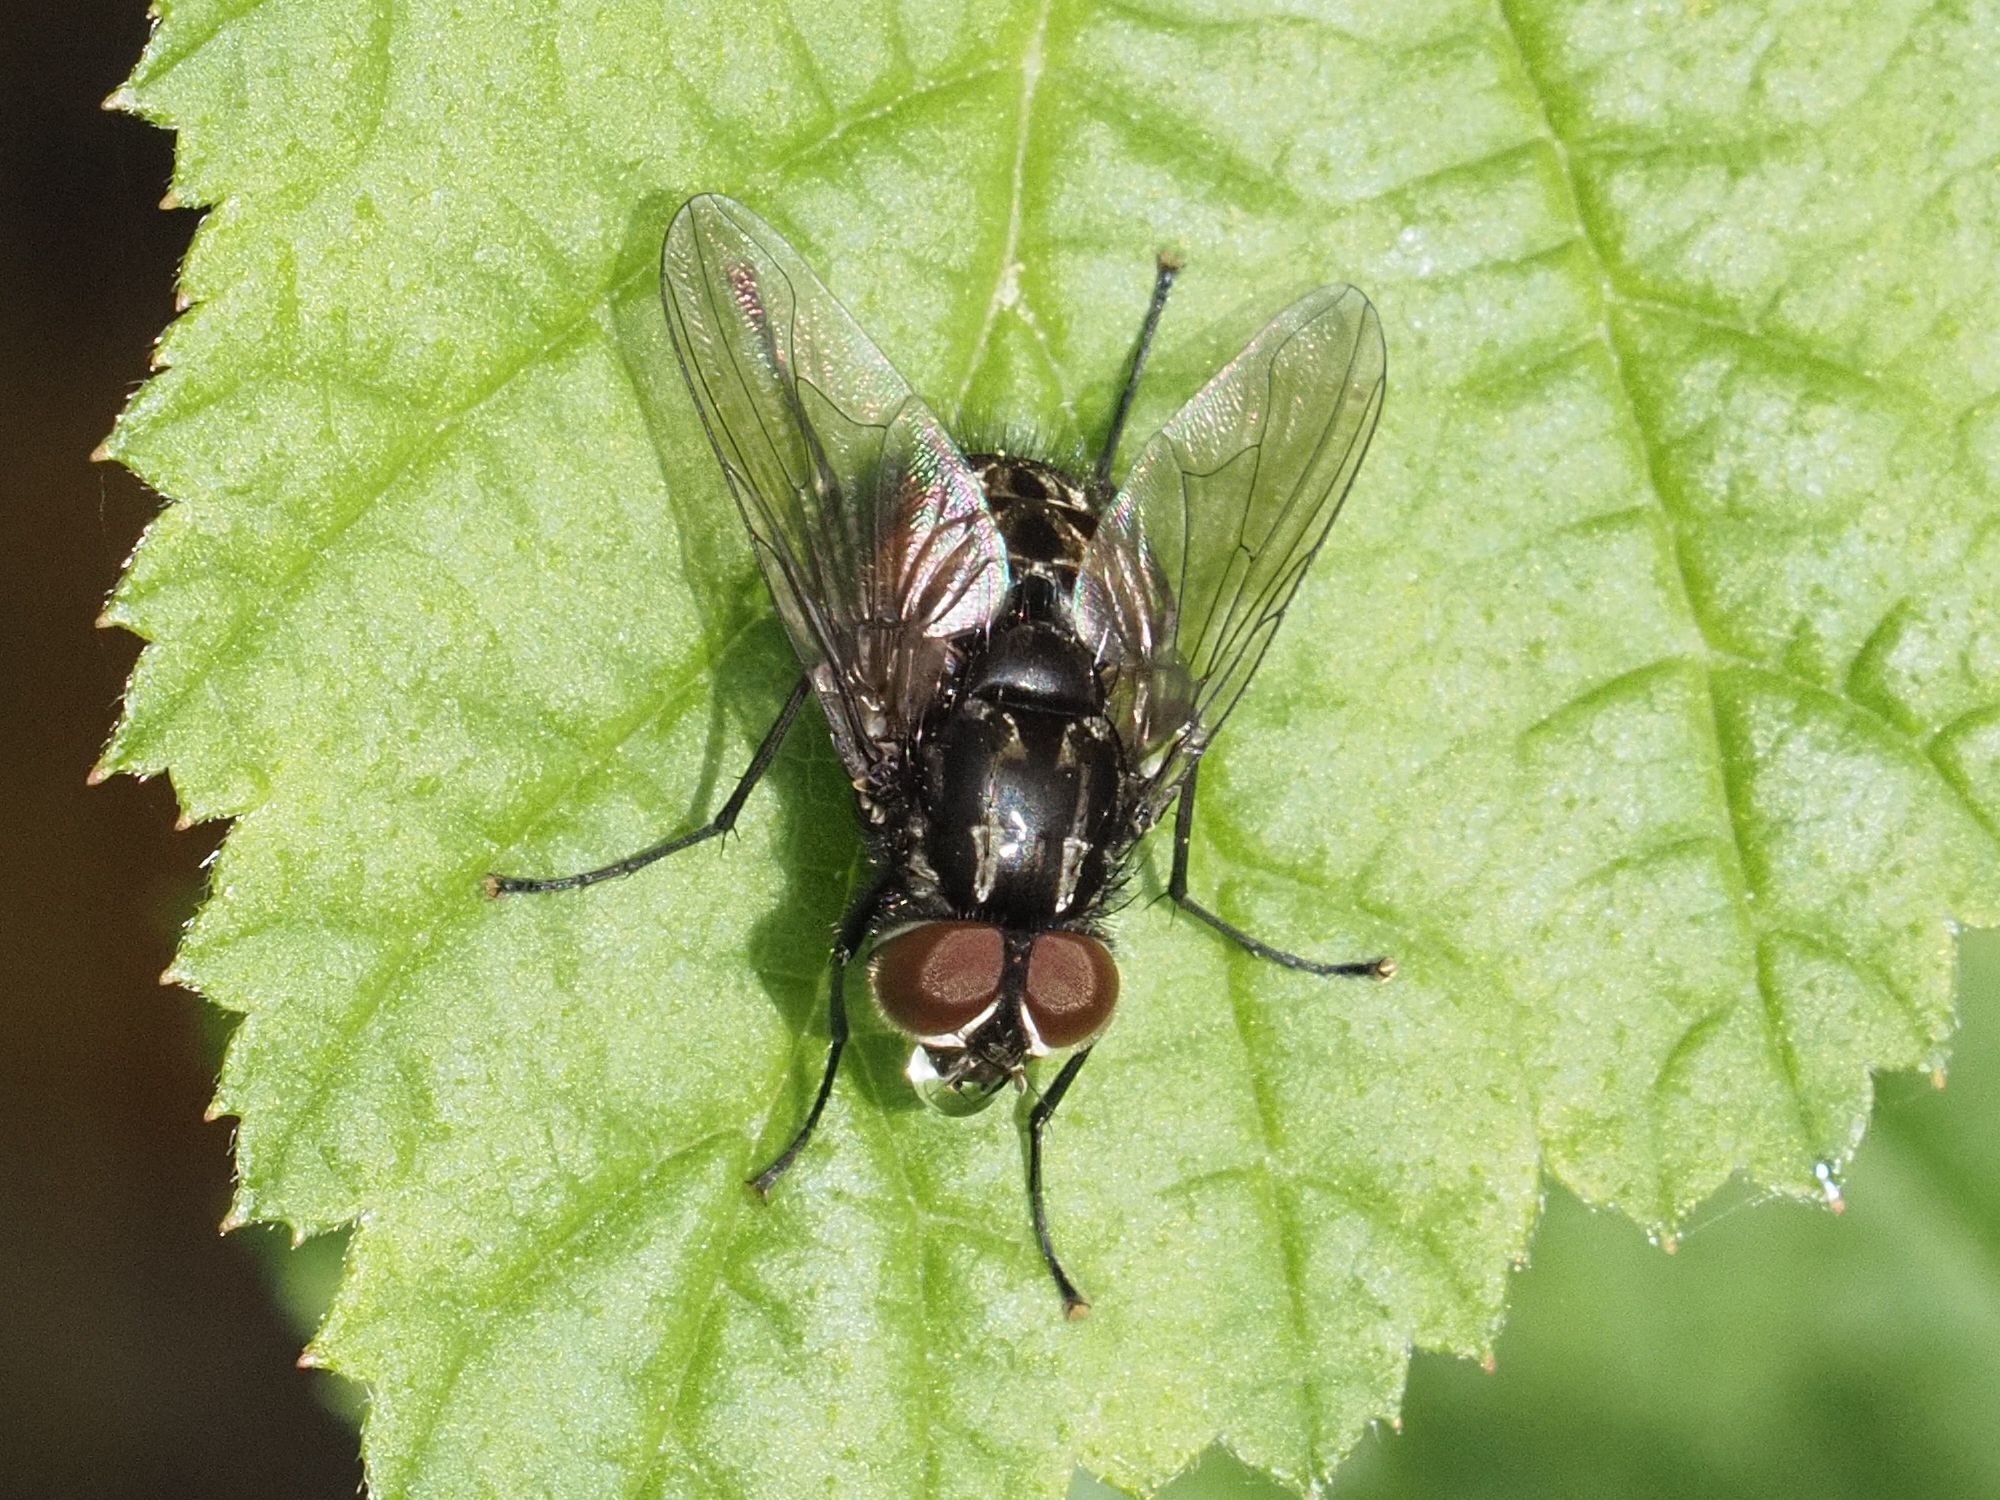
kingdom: Animalia
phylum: Arthropoda
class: Insecta
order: Diptera
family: Muscidae
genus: Graphomya
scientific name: Graphomya maculata
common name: Muscid fly
